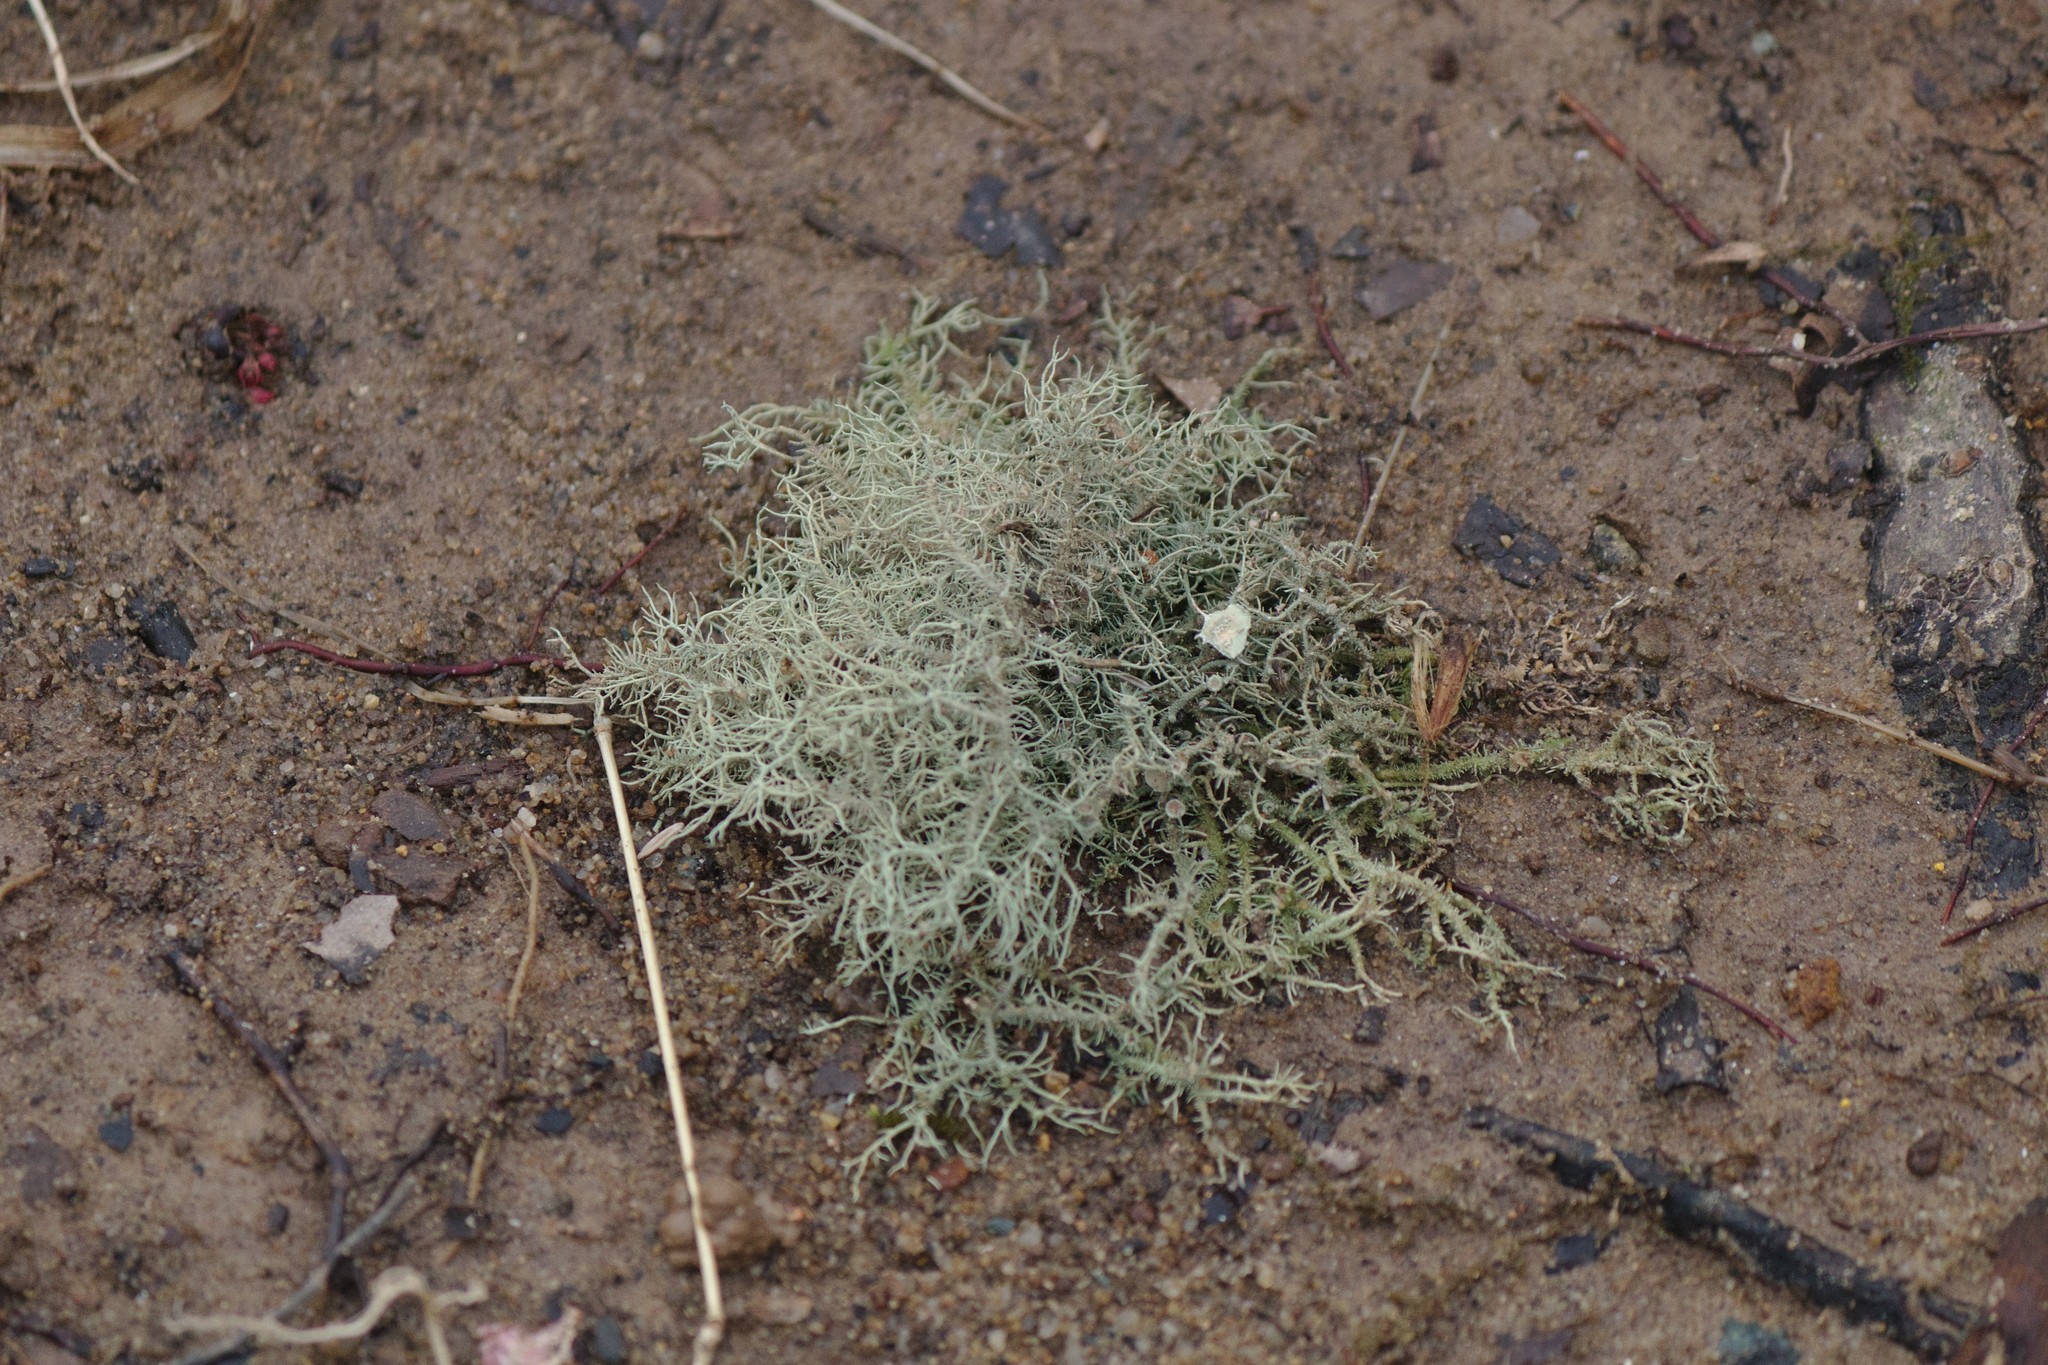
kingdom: Fungi
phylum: Ascomycota
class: Lecanoromycetes
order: Lecanorales
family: Parmeliaceae
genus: Usnea
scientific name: Usnea strigosa
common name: Bushy beard lichen
